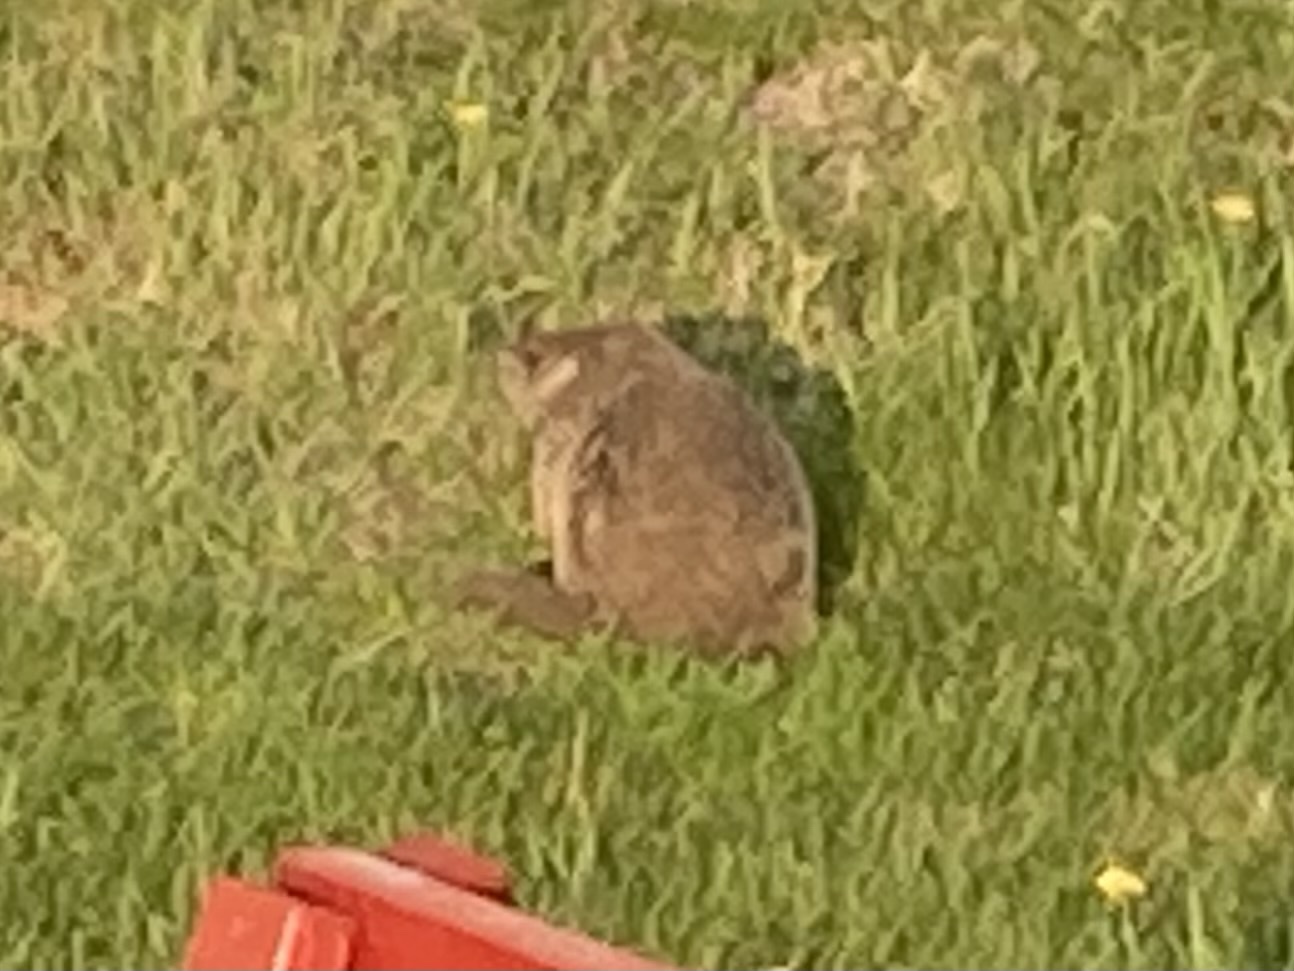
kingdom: Animalia
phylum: Chordata
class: Mammalia
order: Rodentia
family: Sciuridae
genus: Marmota
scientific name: Marmota monax
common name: Groundhog
